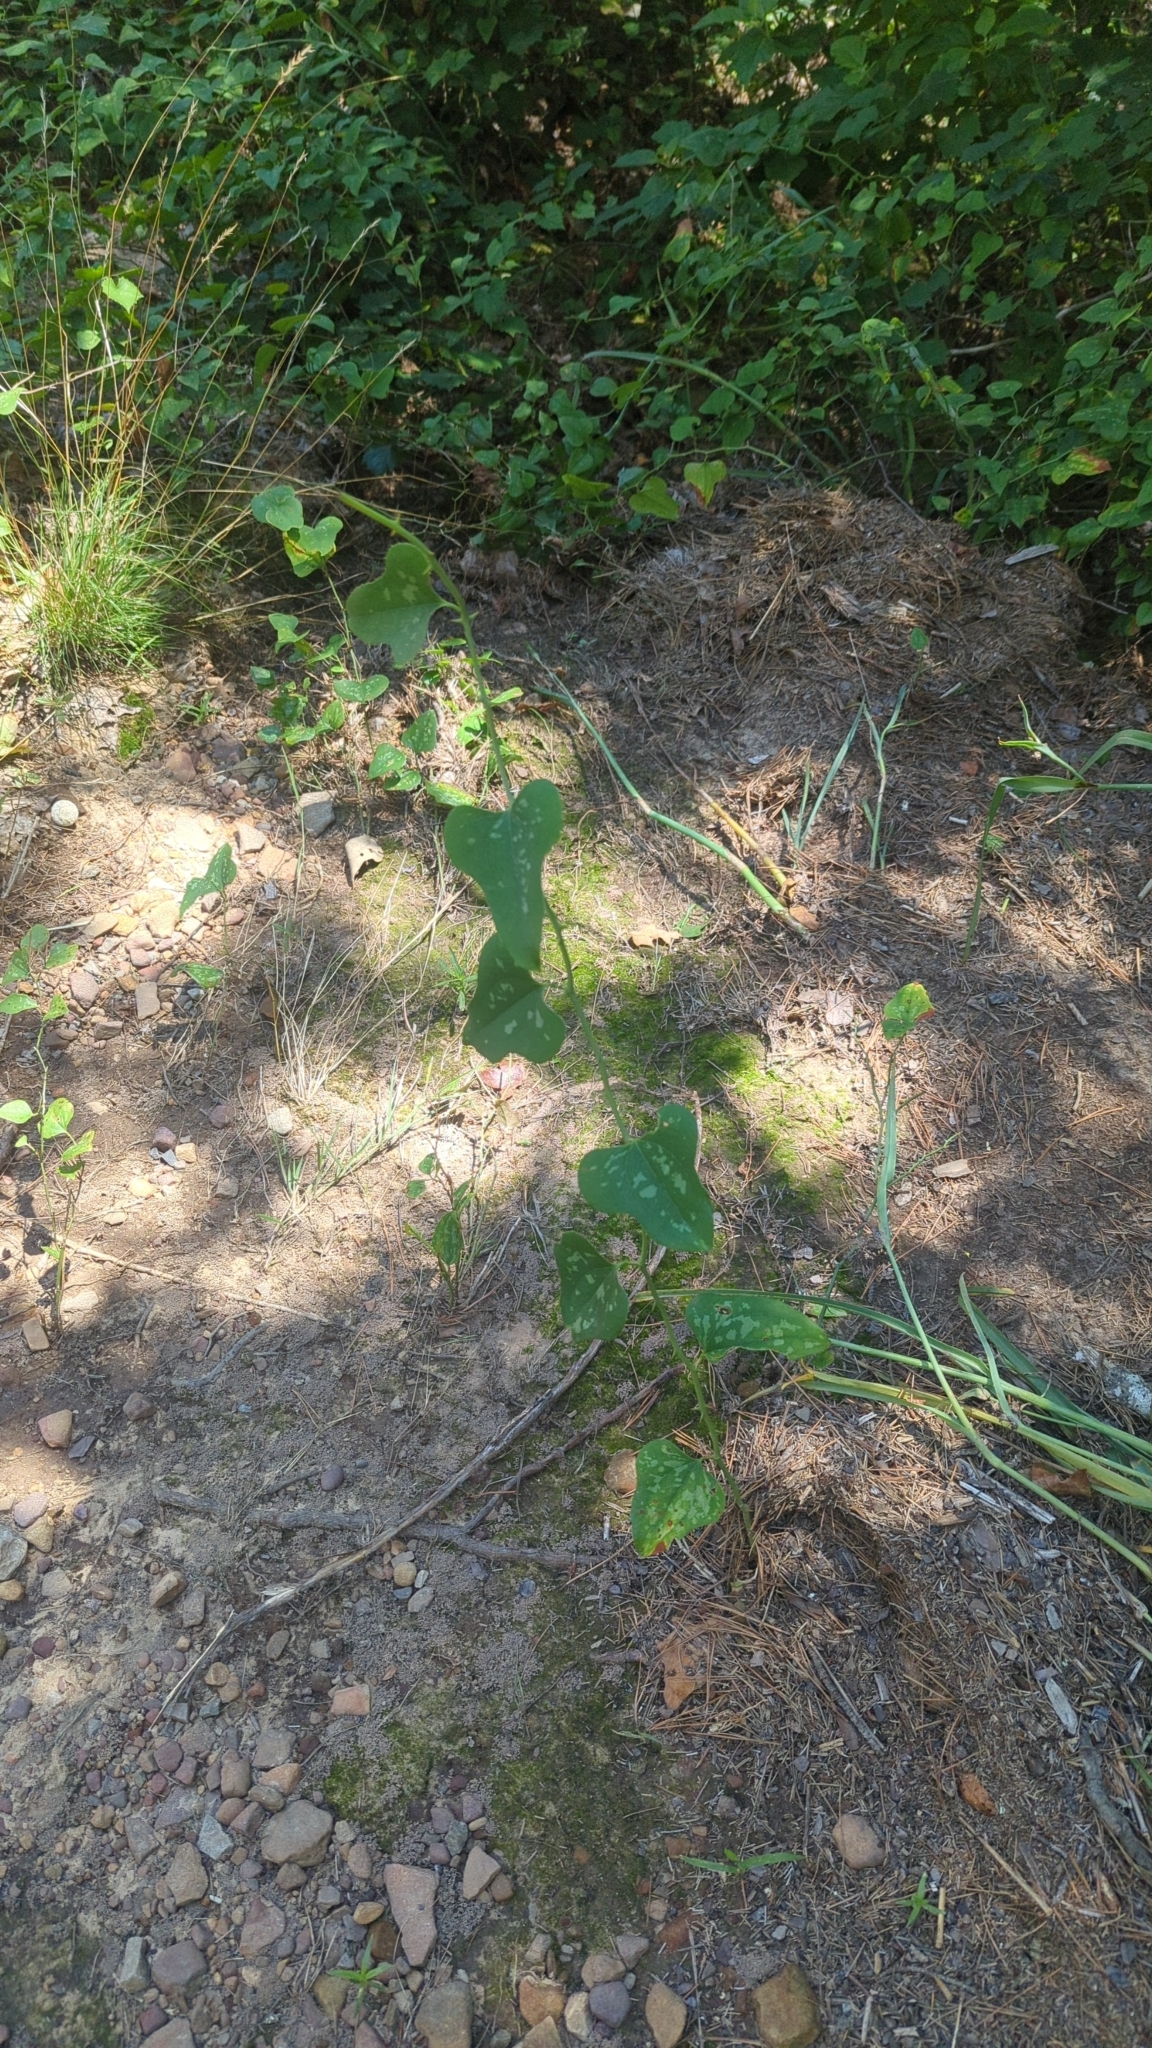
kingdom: Plantae
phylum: Tracheophyta
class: Liliopsida
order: Liliales
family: Smilacaceae
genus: Smilax
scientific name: Smilax bona-nox
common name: Catbrier
